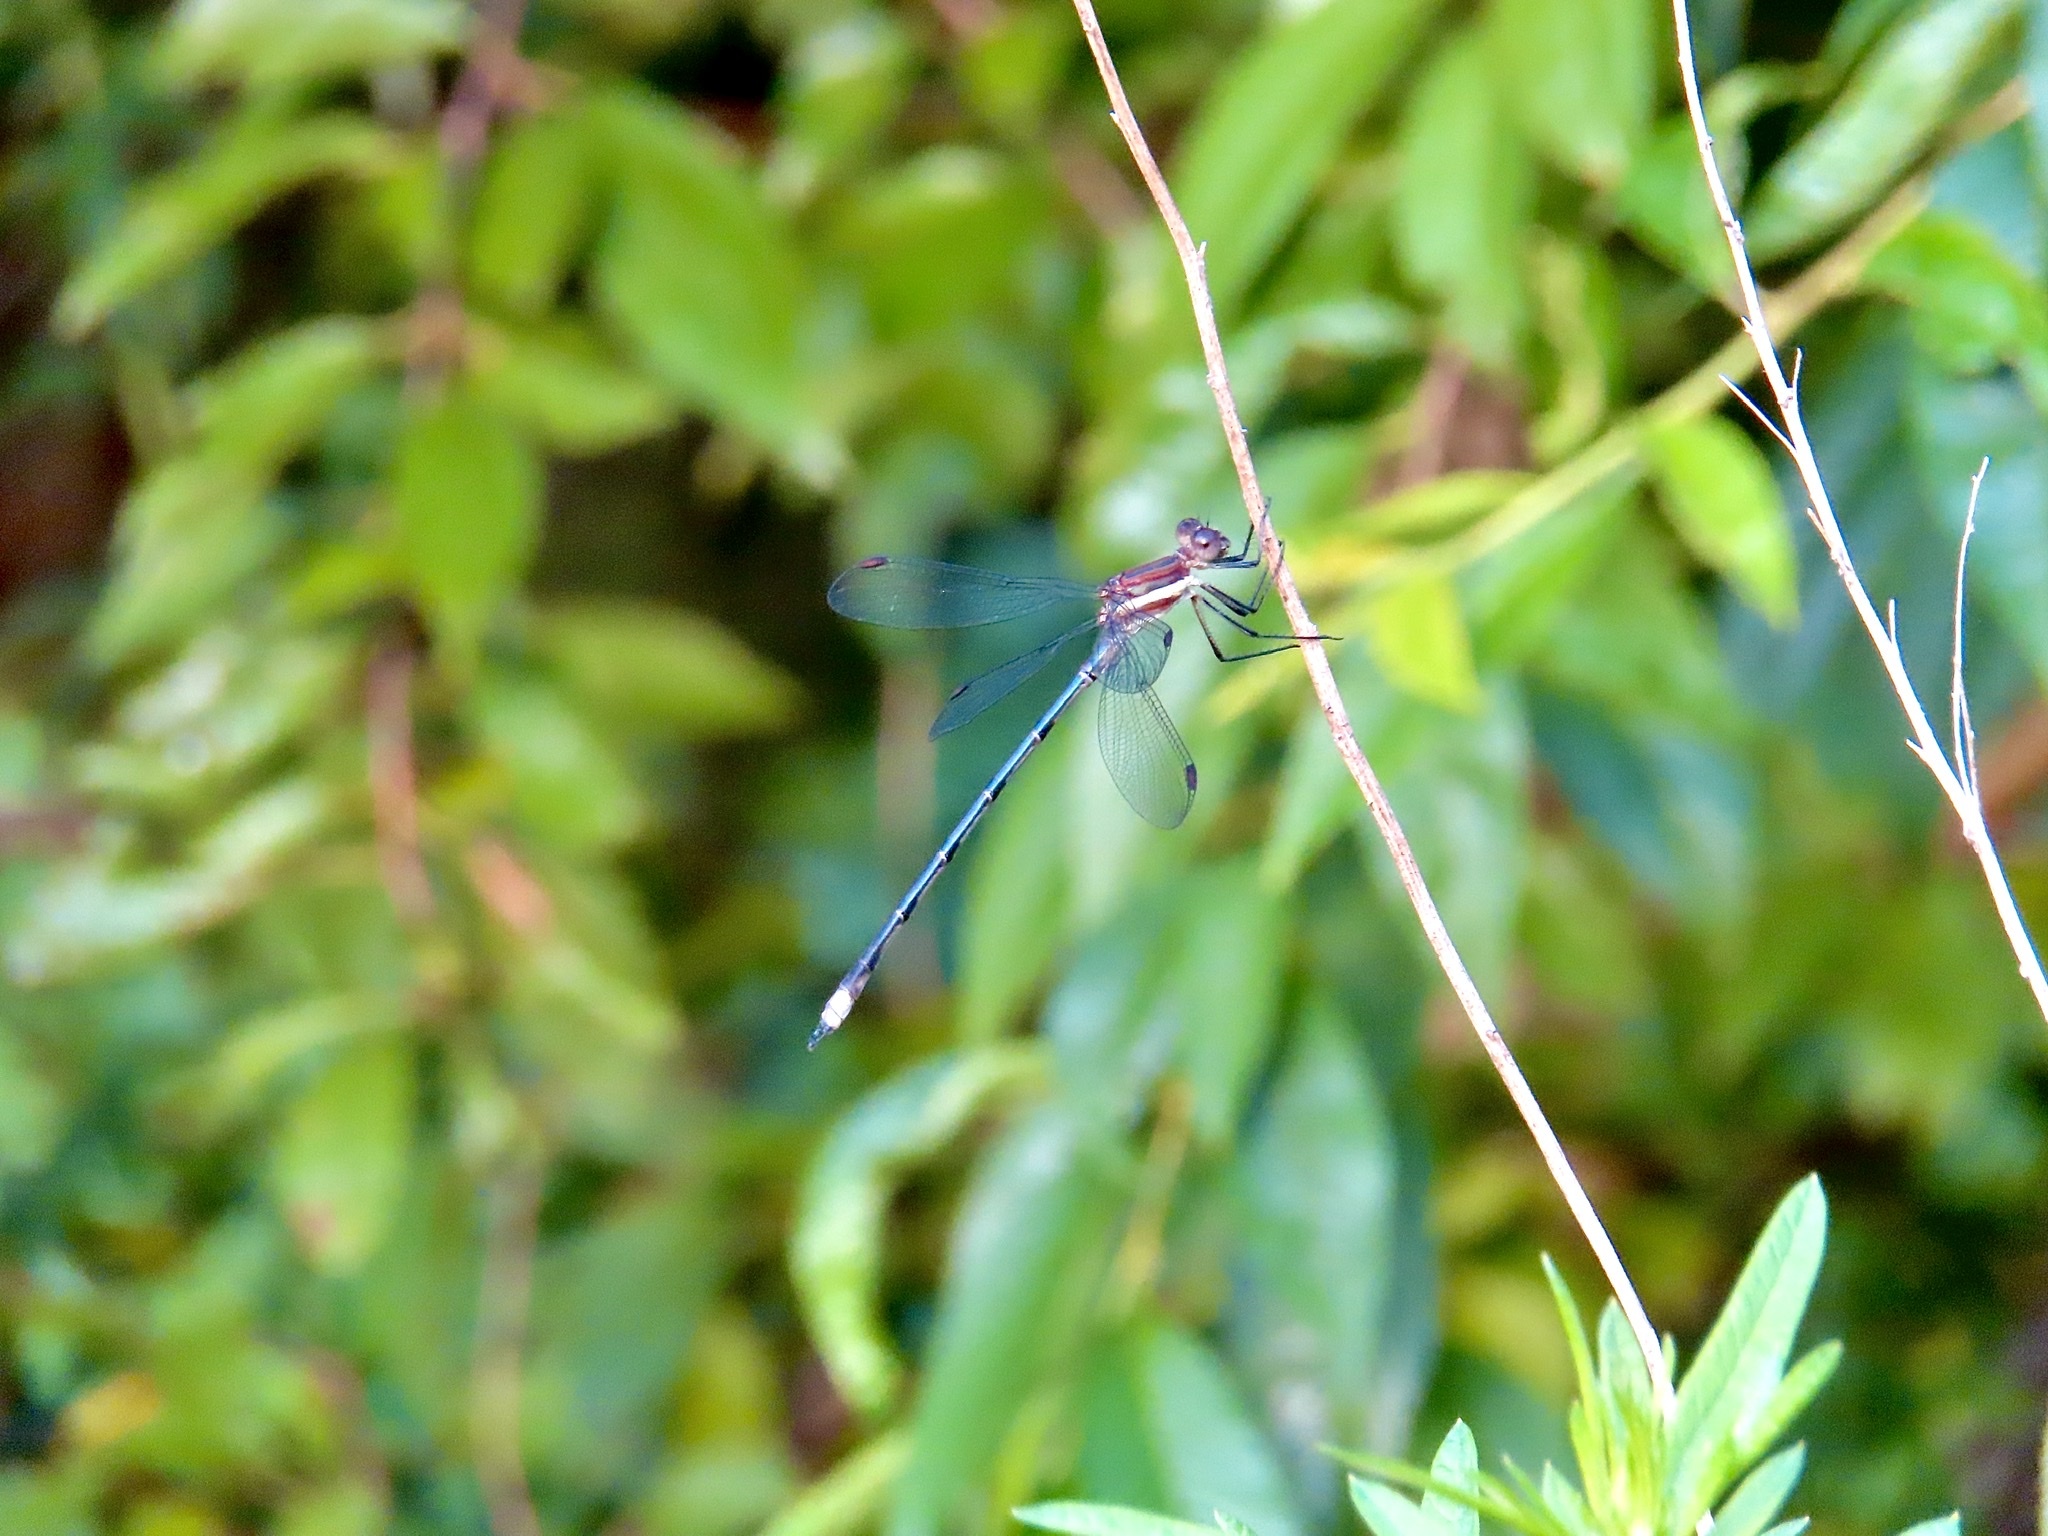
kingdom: Animalia
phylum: Arthropoda
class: Insecta
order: Odonata
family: Lestidae
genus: Archilestes
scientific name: Archilestes grandis
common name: Great spreadwing
